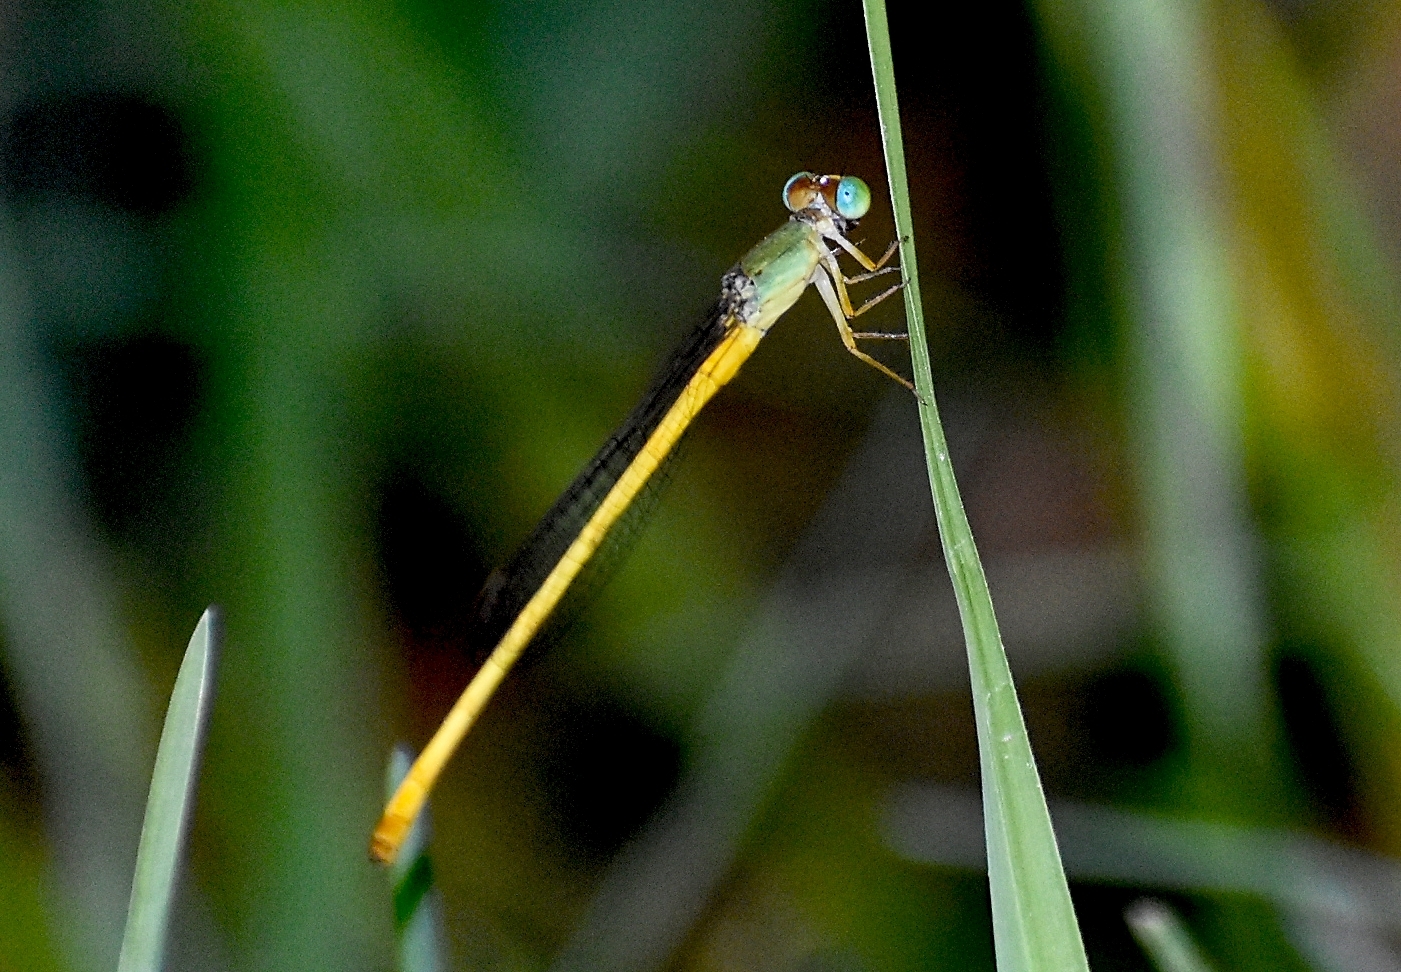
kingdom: Animalia
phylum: Arthropoda
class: Insecta
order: Odonata
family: Coenagrionidae
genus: Ceriagrion
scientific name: Ceriagrion coromandelianum
